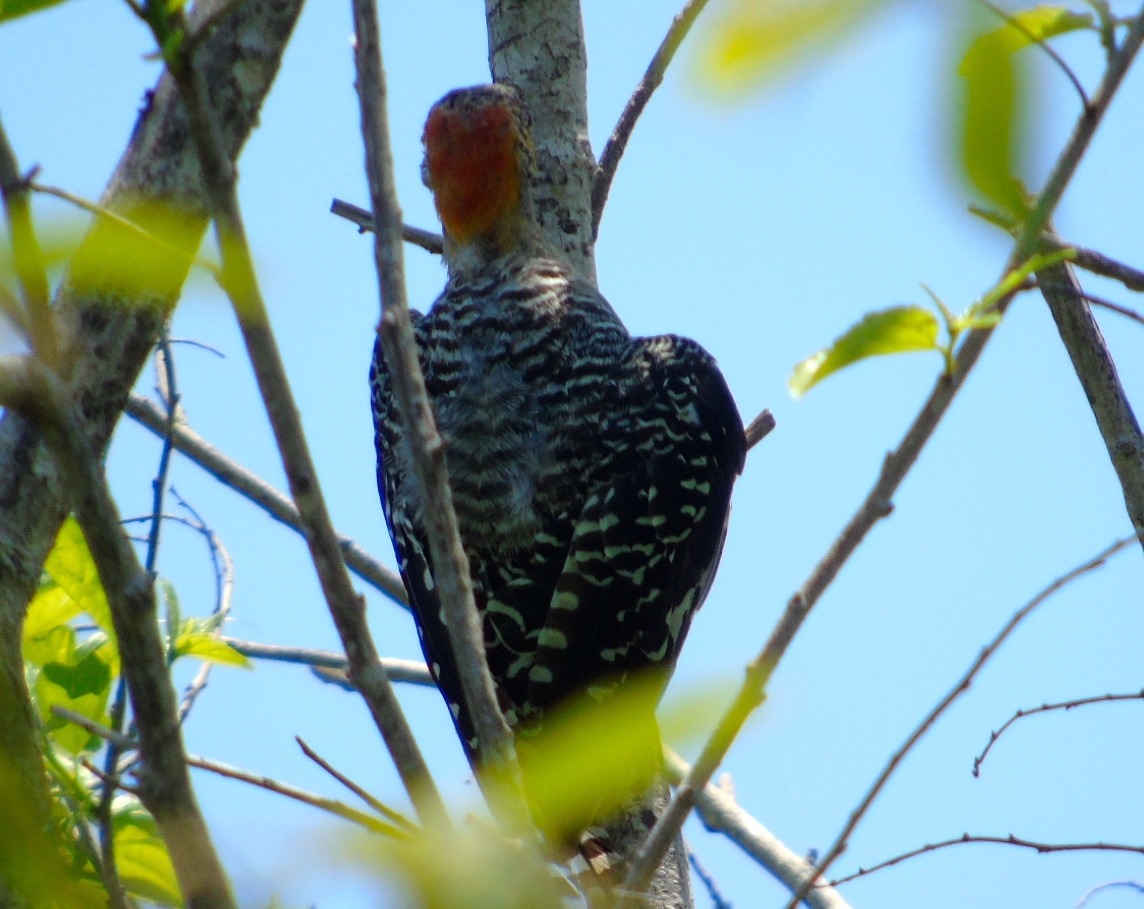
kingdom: Animalia
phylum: Chordata
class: Aves
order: Piciformes
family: Picidae
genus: Melanerpes
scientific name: Melanerpes chrysogenys
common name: Golden-cheeked woodpecker
